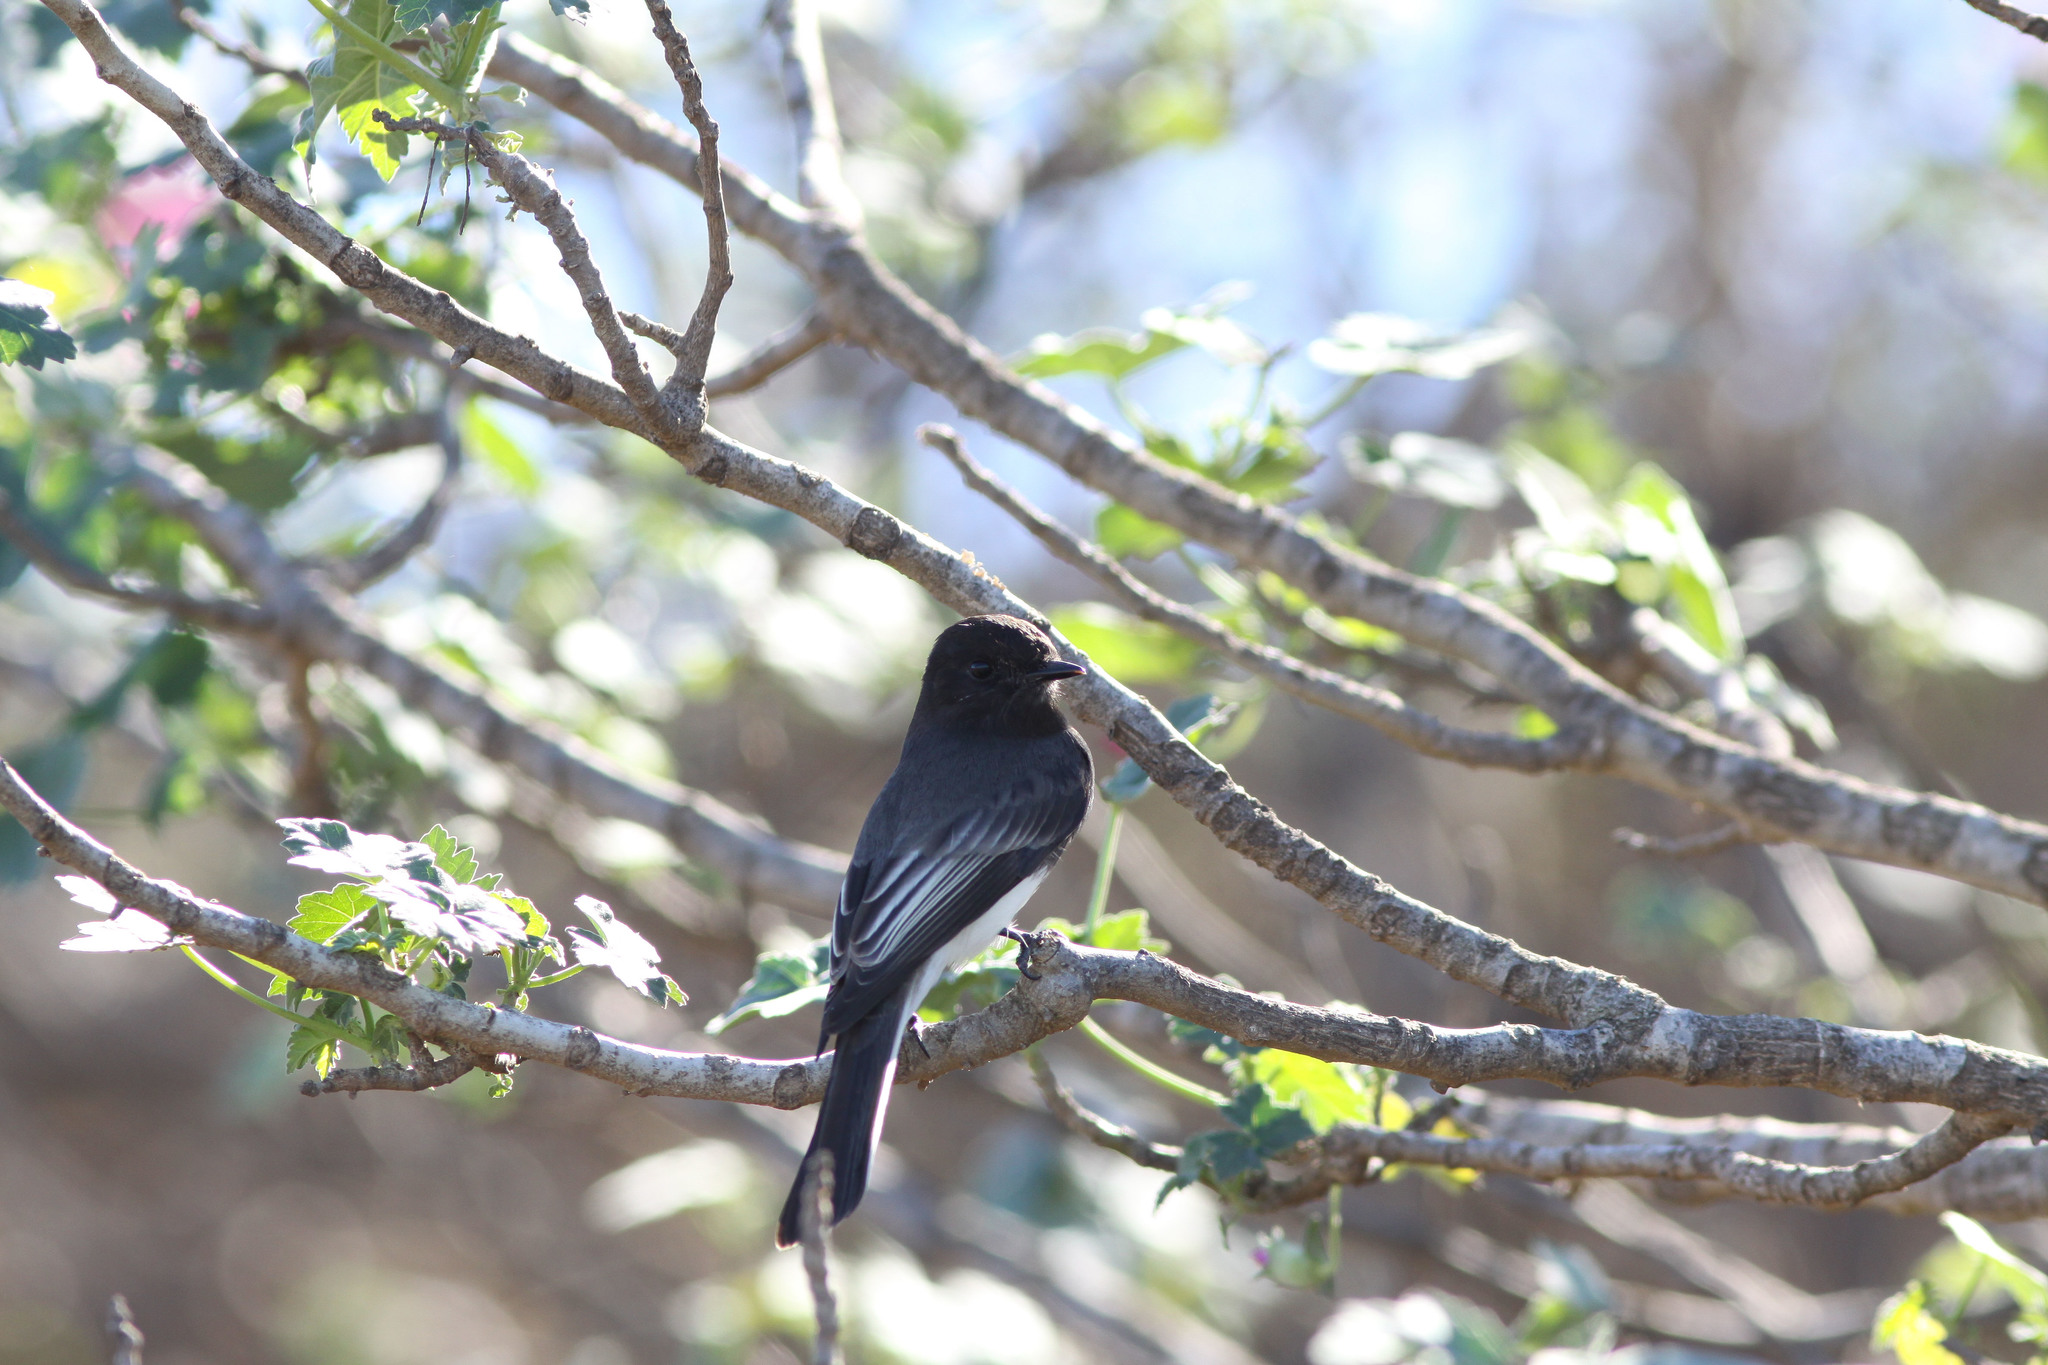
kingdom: Animalia
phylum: Chordata
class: Aves
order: Passeriformes
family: Tyrannidae
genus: Sayornis
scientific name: Sayornis nigricans
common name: Black phoebe
